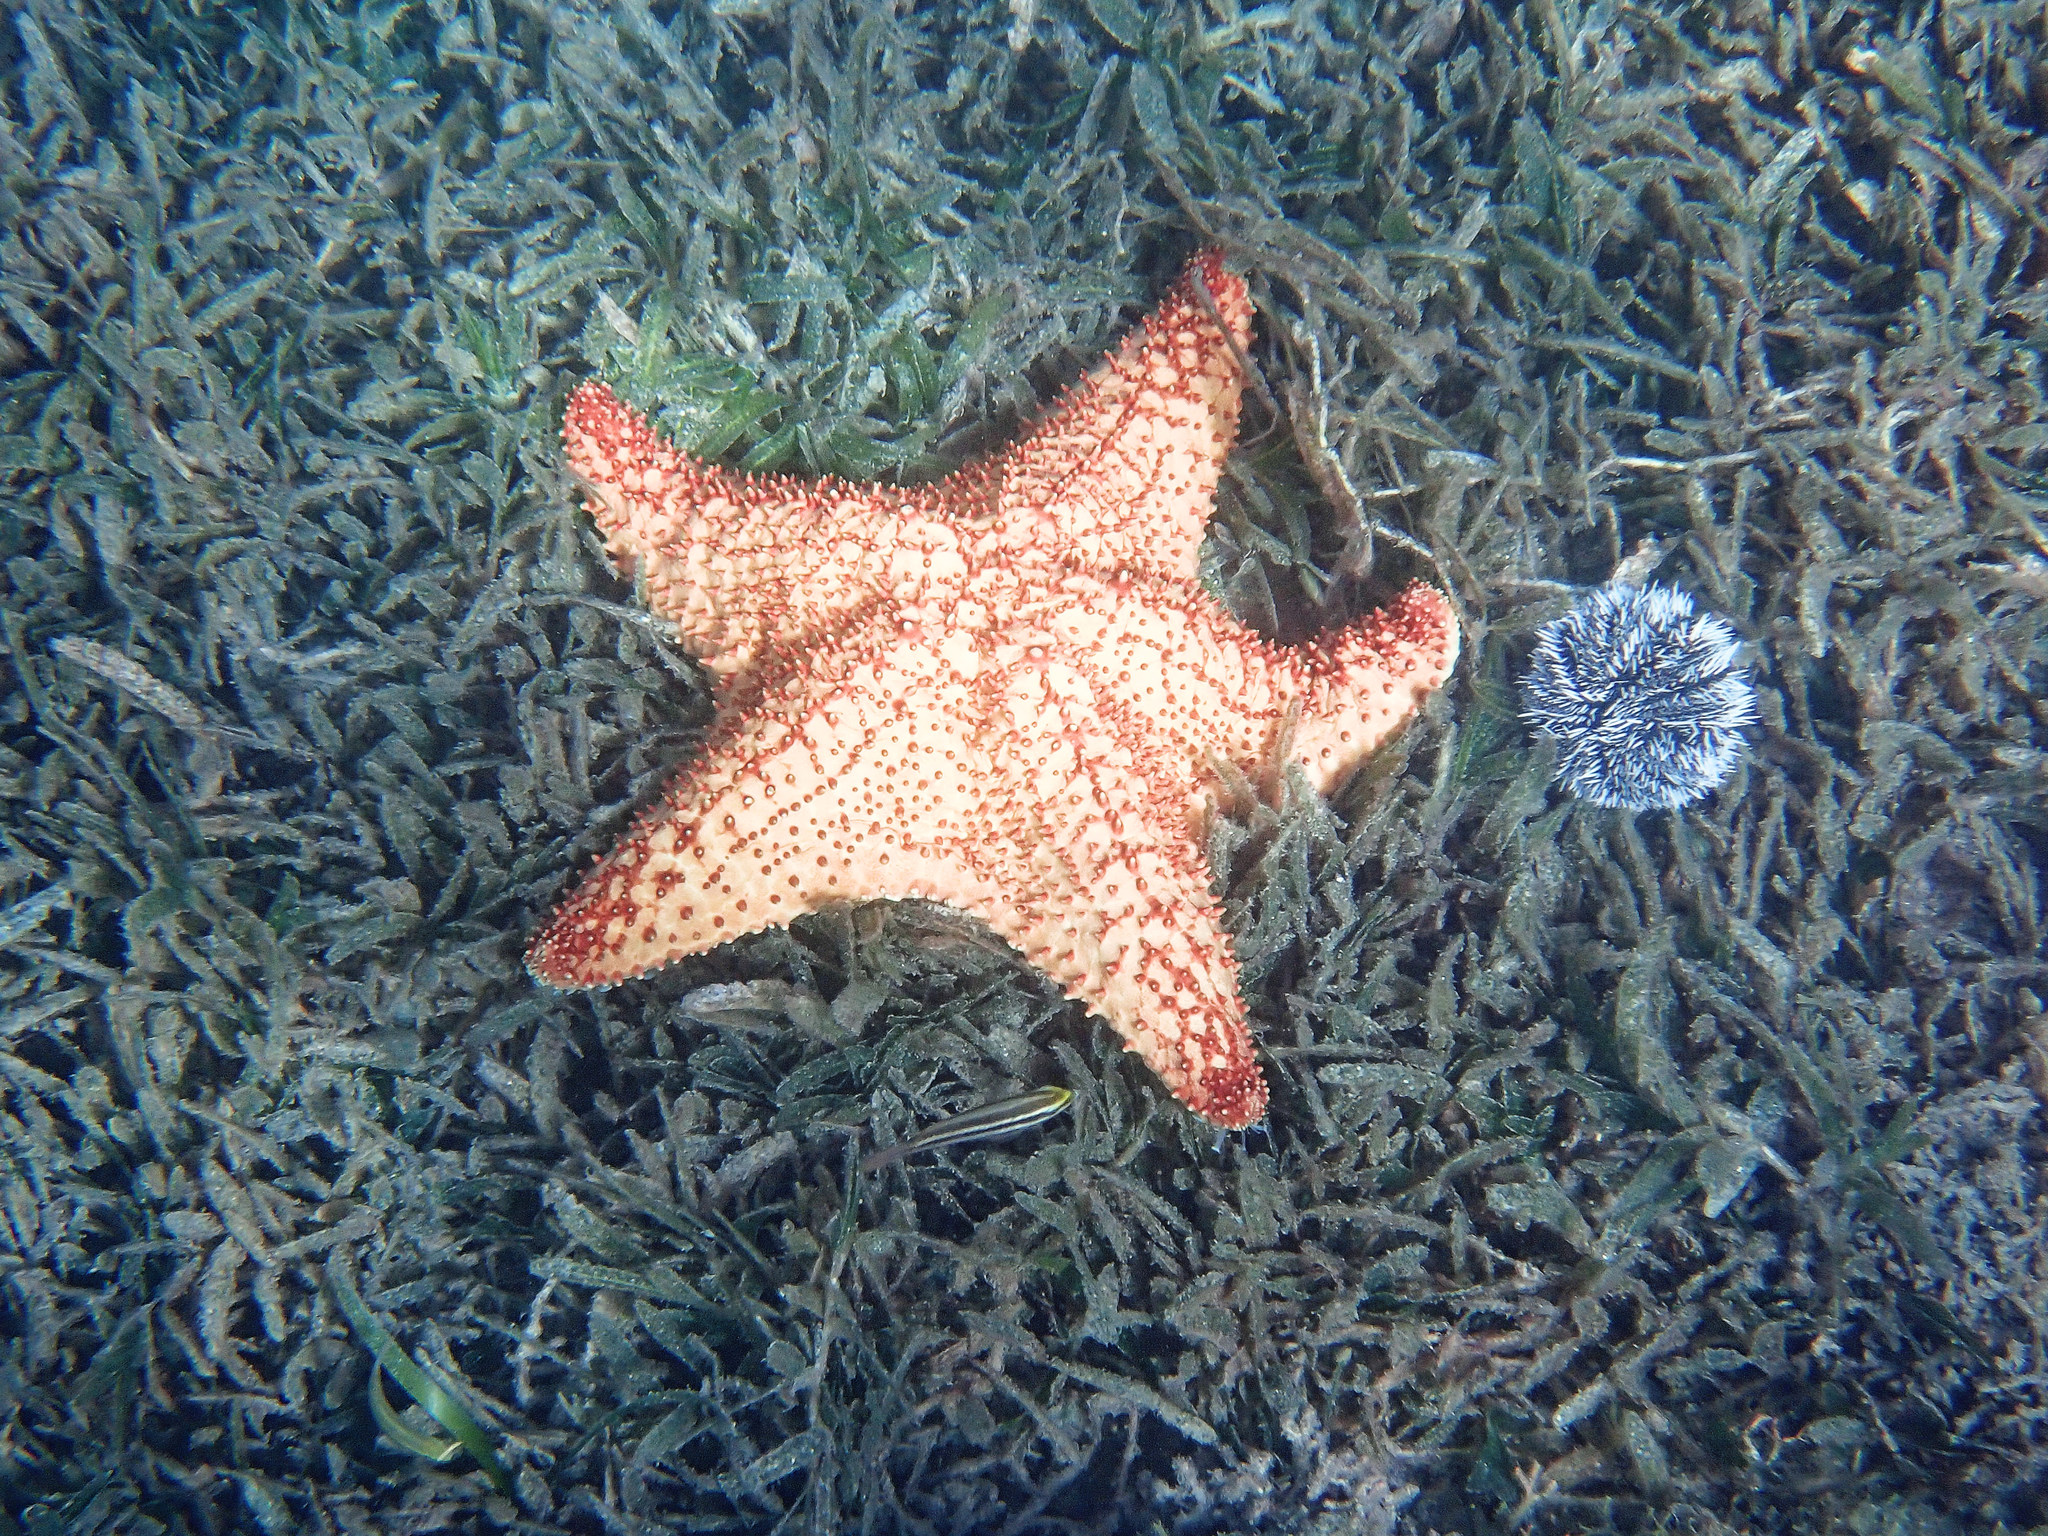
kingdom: Animalia
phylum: Echinodermata
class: Asteroidea
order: Valvatida
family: Oreasteridae
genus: Oreaster
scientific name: Oreaster reticulatus
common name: Cushion sea star
